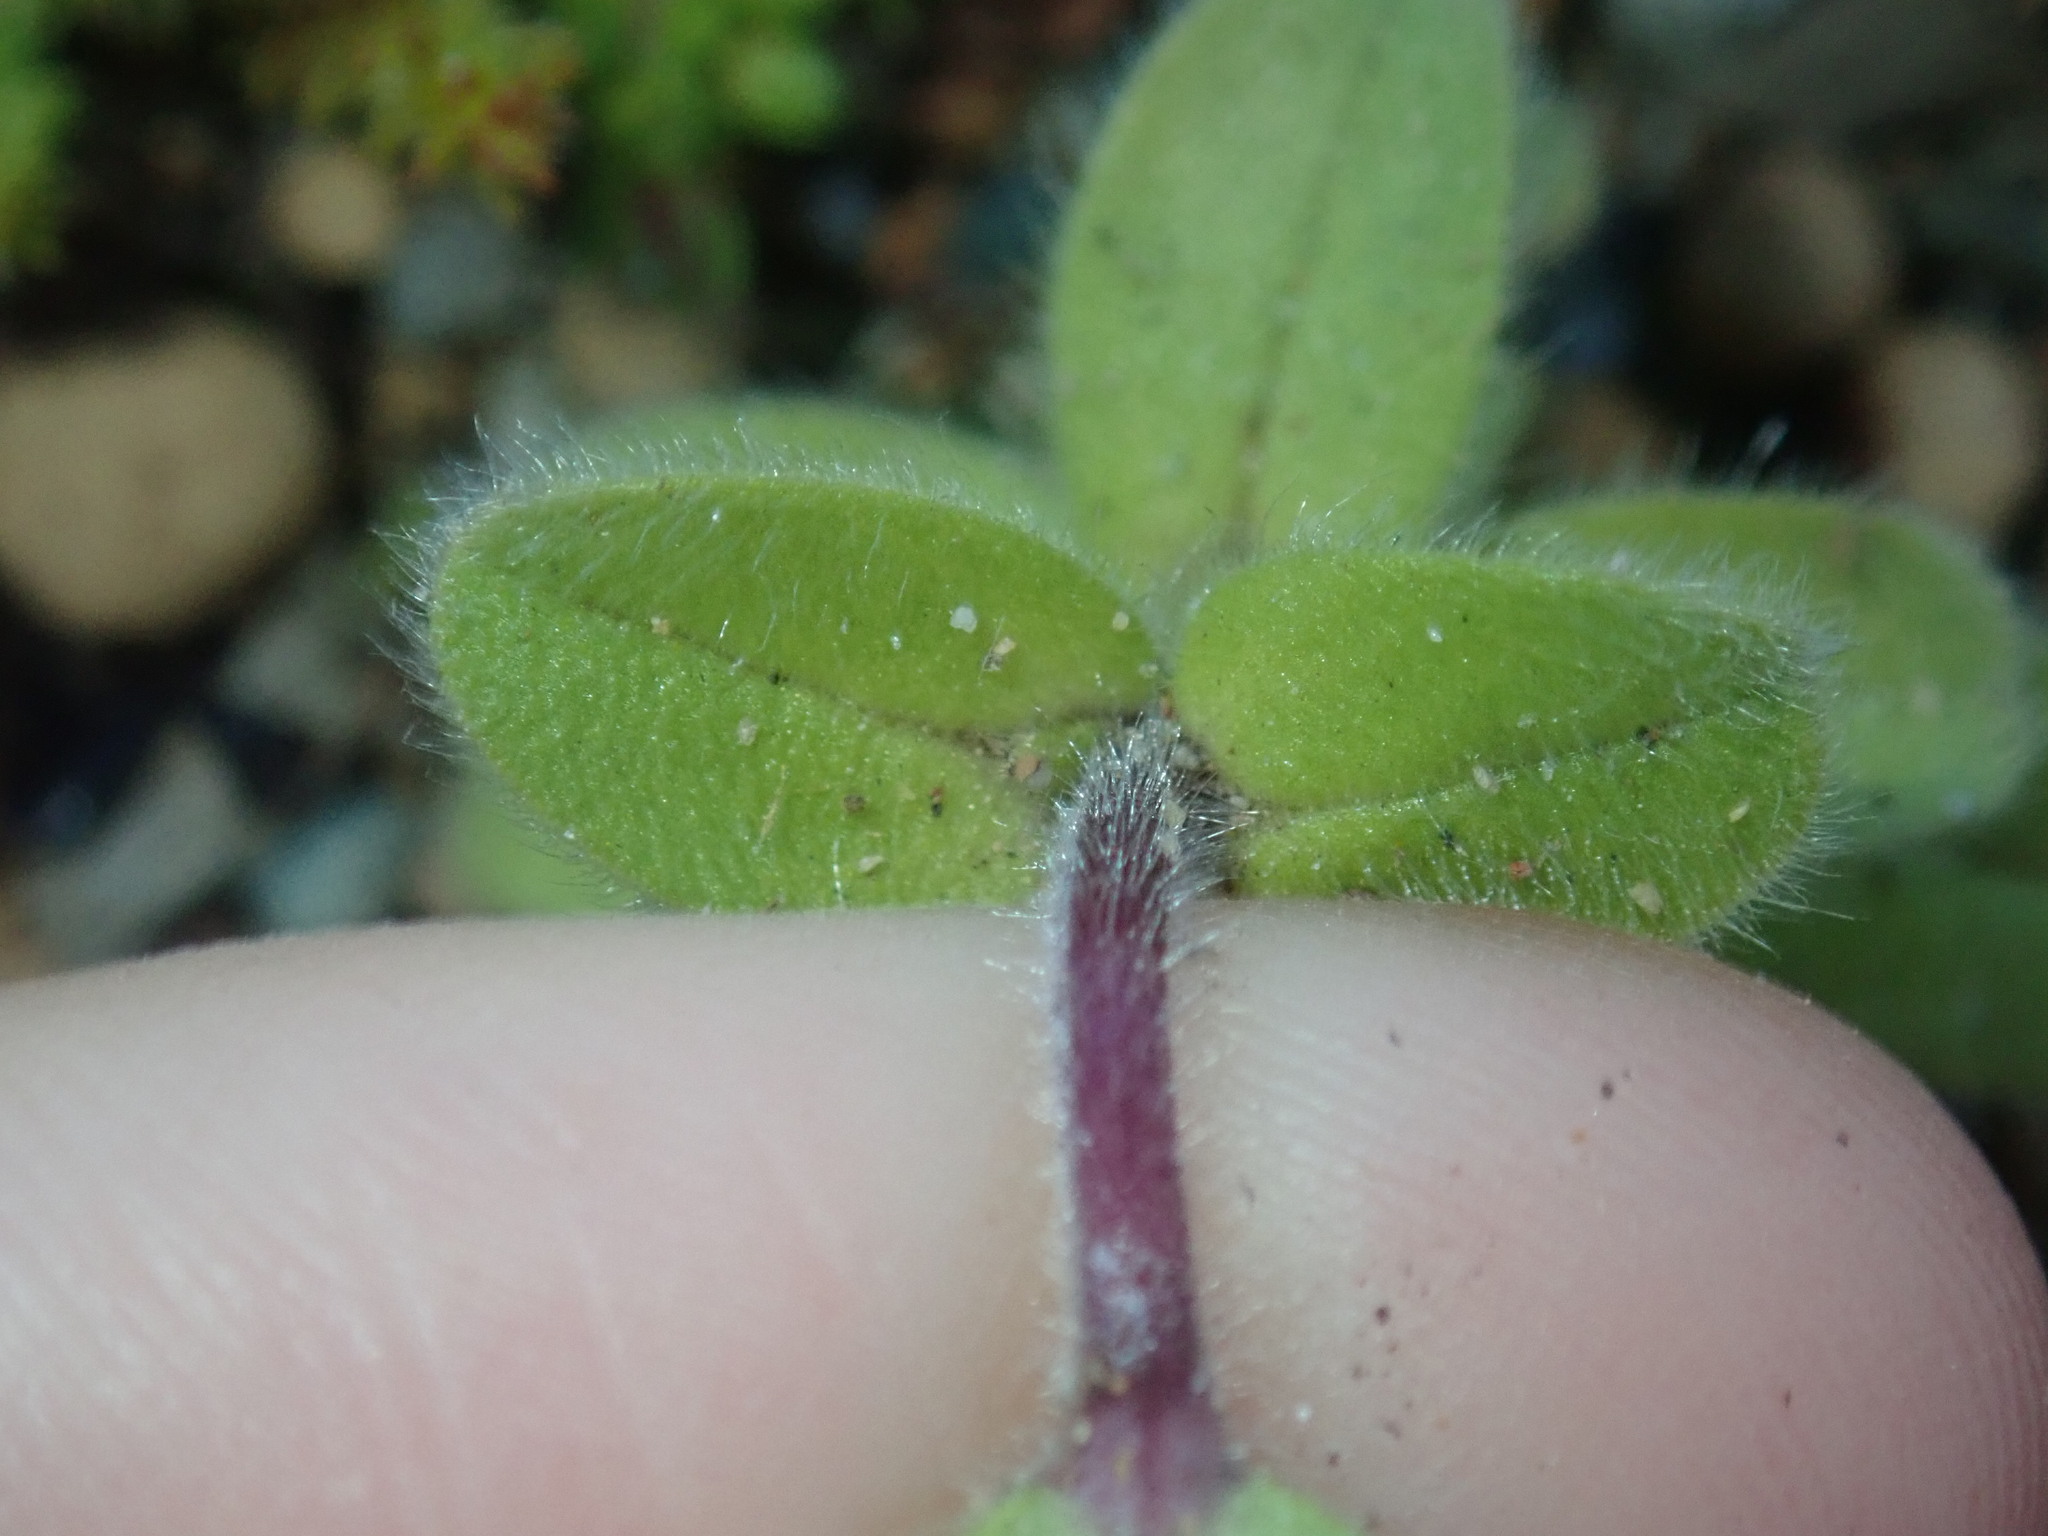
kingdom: Plantae
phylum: Tracheophyta
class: Magnoliopsida
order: Caryophyllales
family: Caryophyllaceae
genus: Cerastium
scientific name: Cerastium glomeratum
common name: Sticky chickweed
